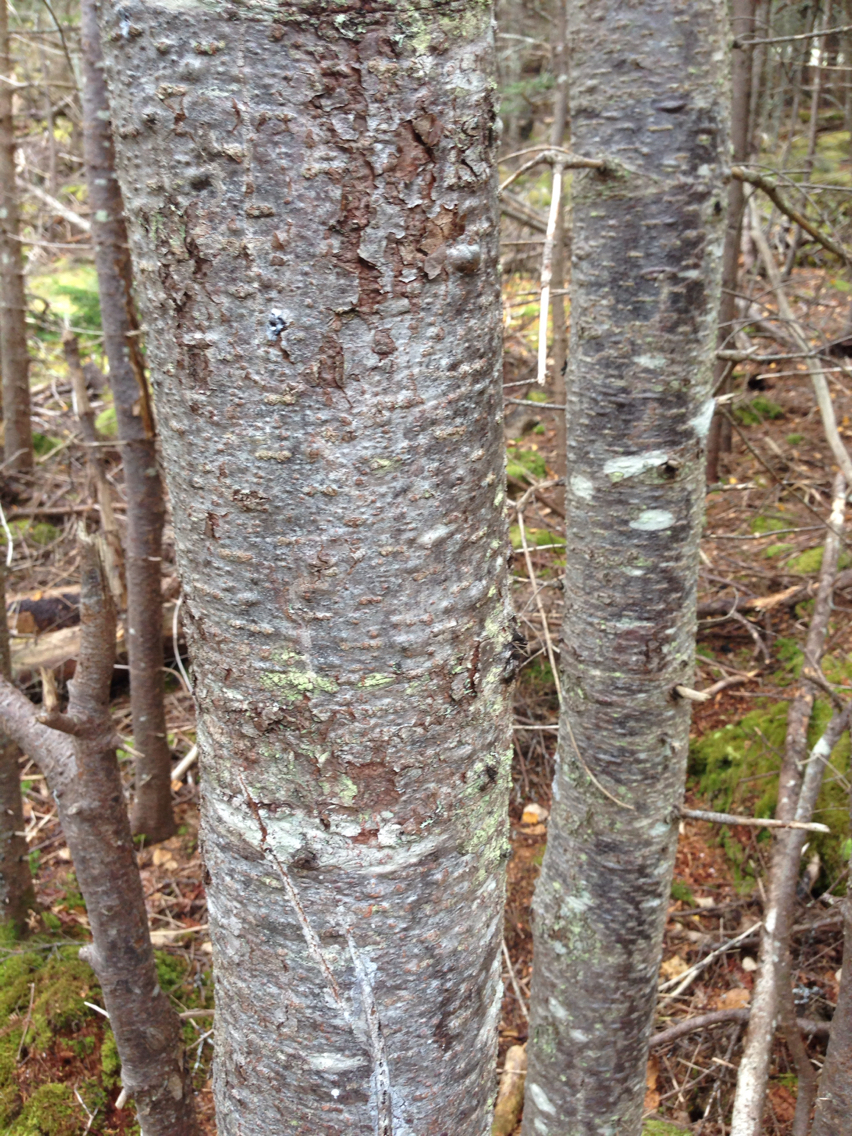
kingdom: Plantae
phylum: Tracheophyta
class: Pinopsida
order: Pinales
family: Pinaceae
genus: Abies
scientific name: Abies balsamea
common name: Balsam fir
